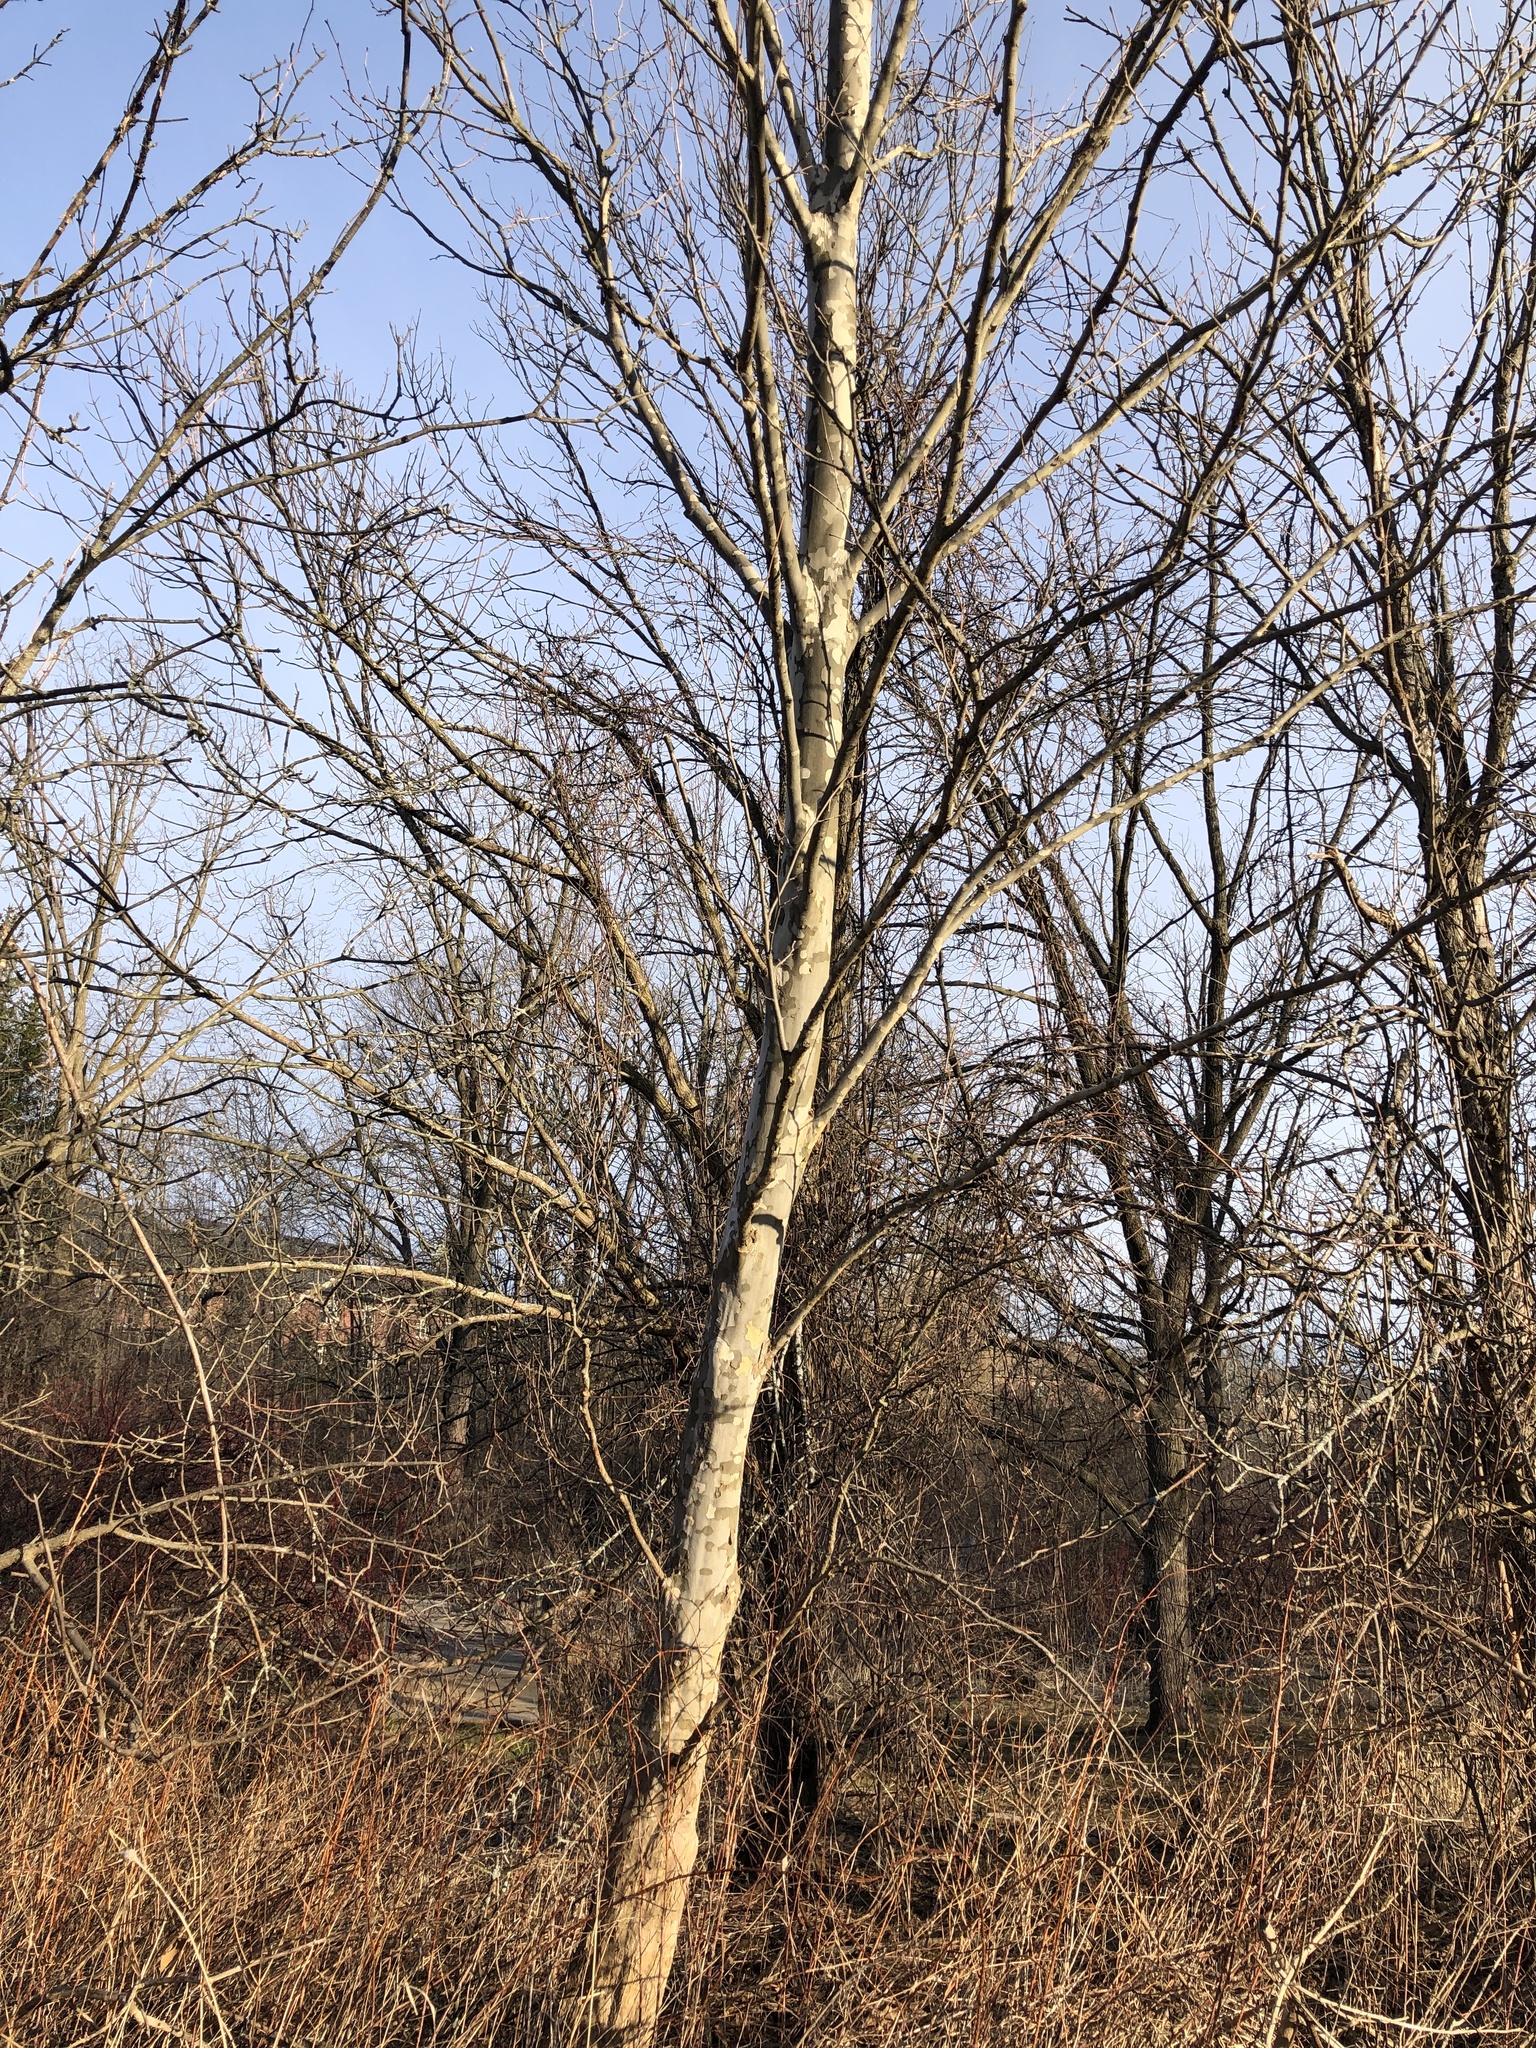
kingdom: Plantae
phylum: Tracheophyta
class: Magnoliopsida
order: Proteales
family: Platanaceae
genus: Platanus
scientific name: Platanus occidentalis
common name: American sycamore
